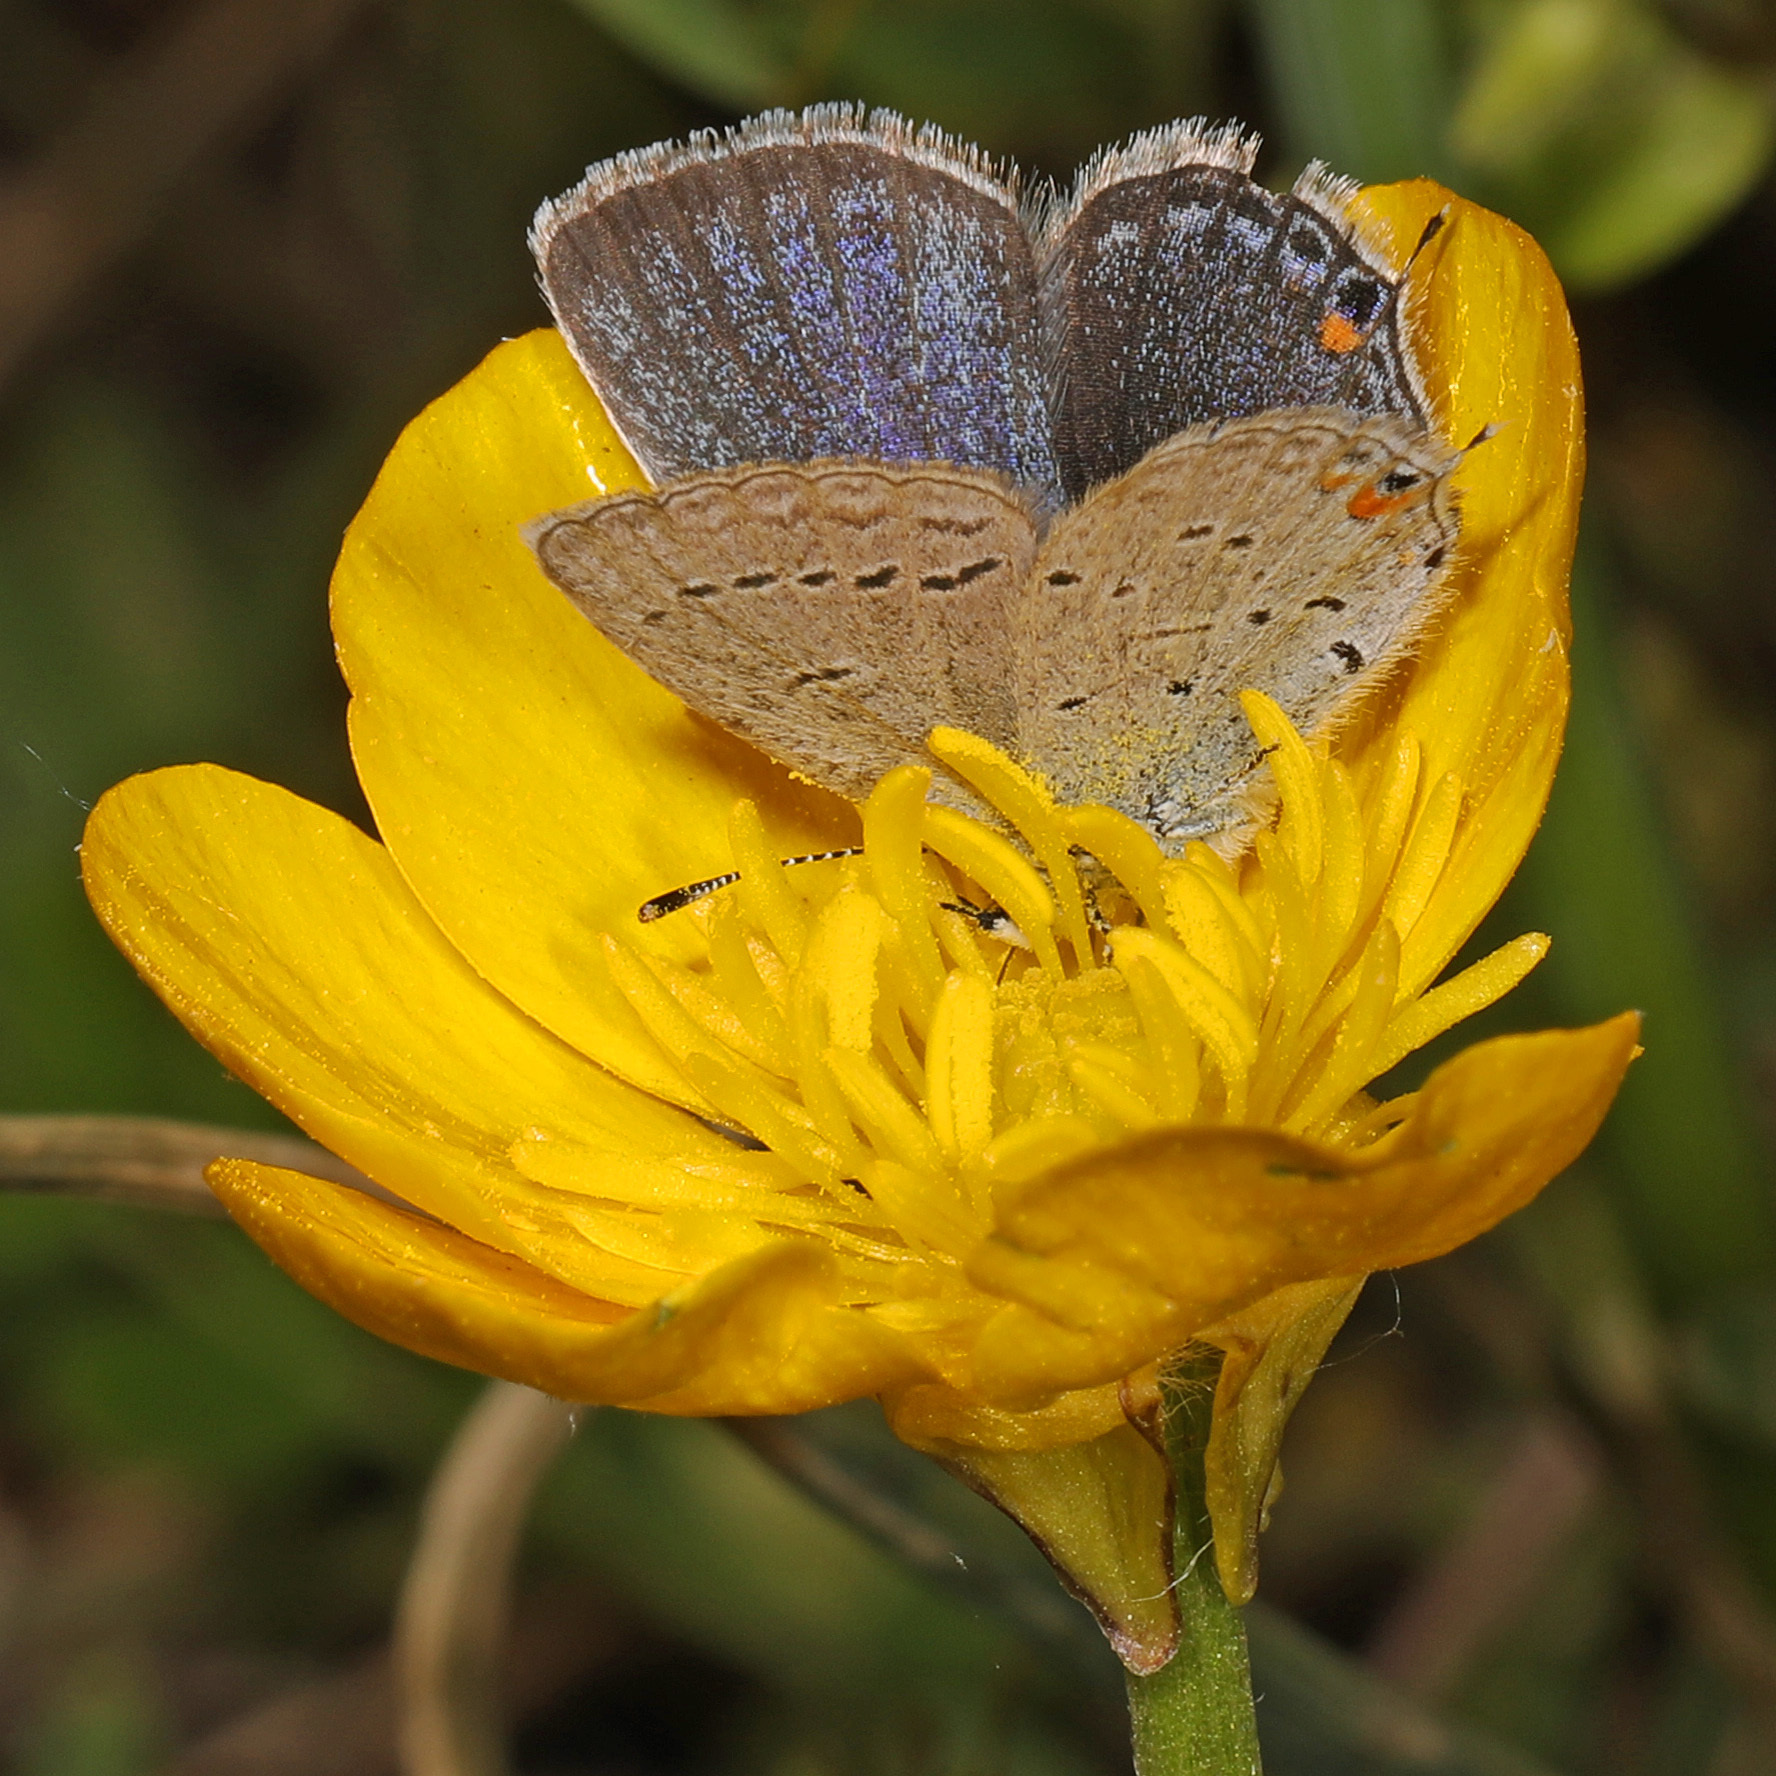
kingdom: Animalia
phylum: Arthropoda
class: Insecta
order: Lepidoptera
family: Lycaenidae
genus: Elkalyce
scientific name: Elkalyce comyntas
